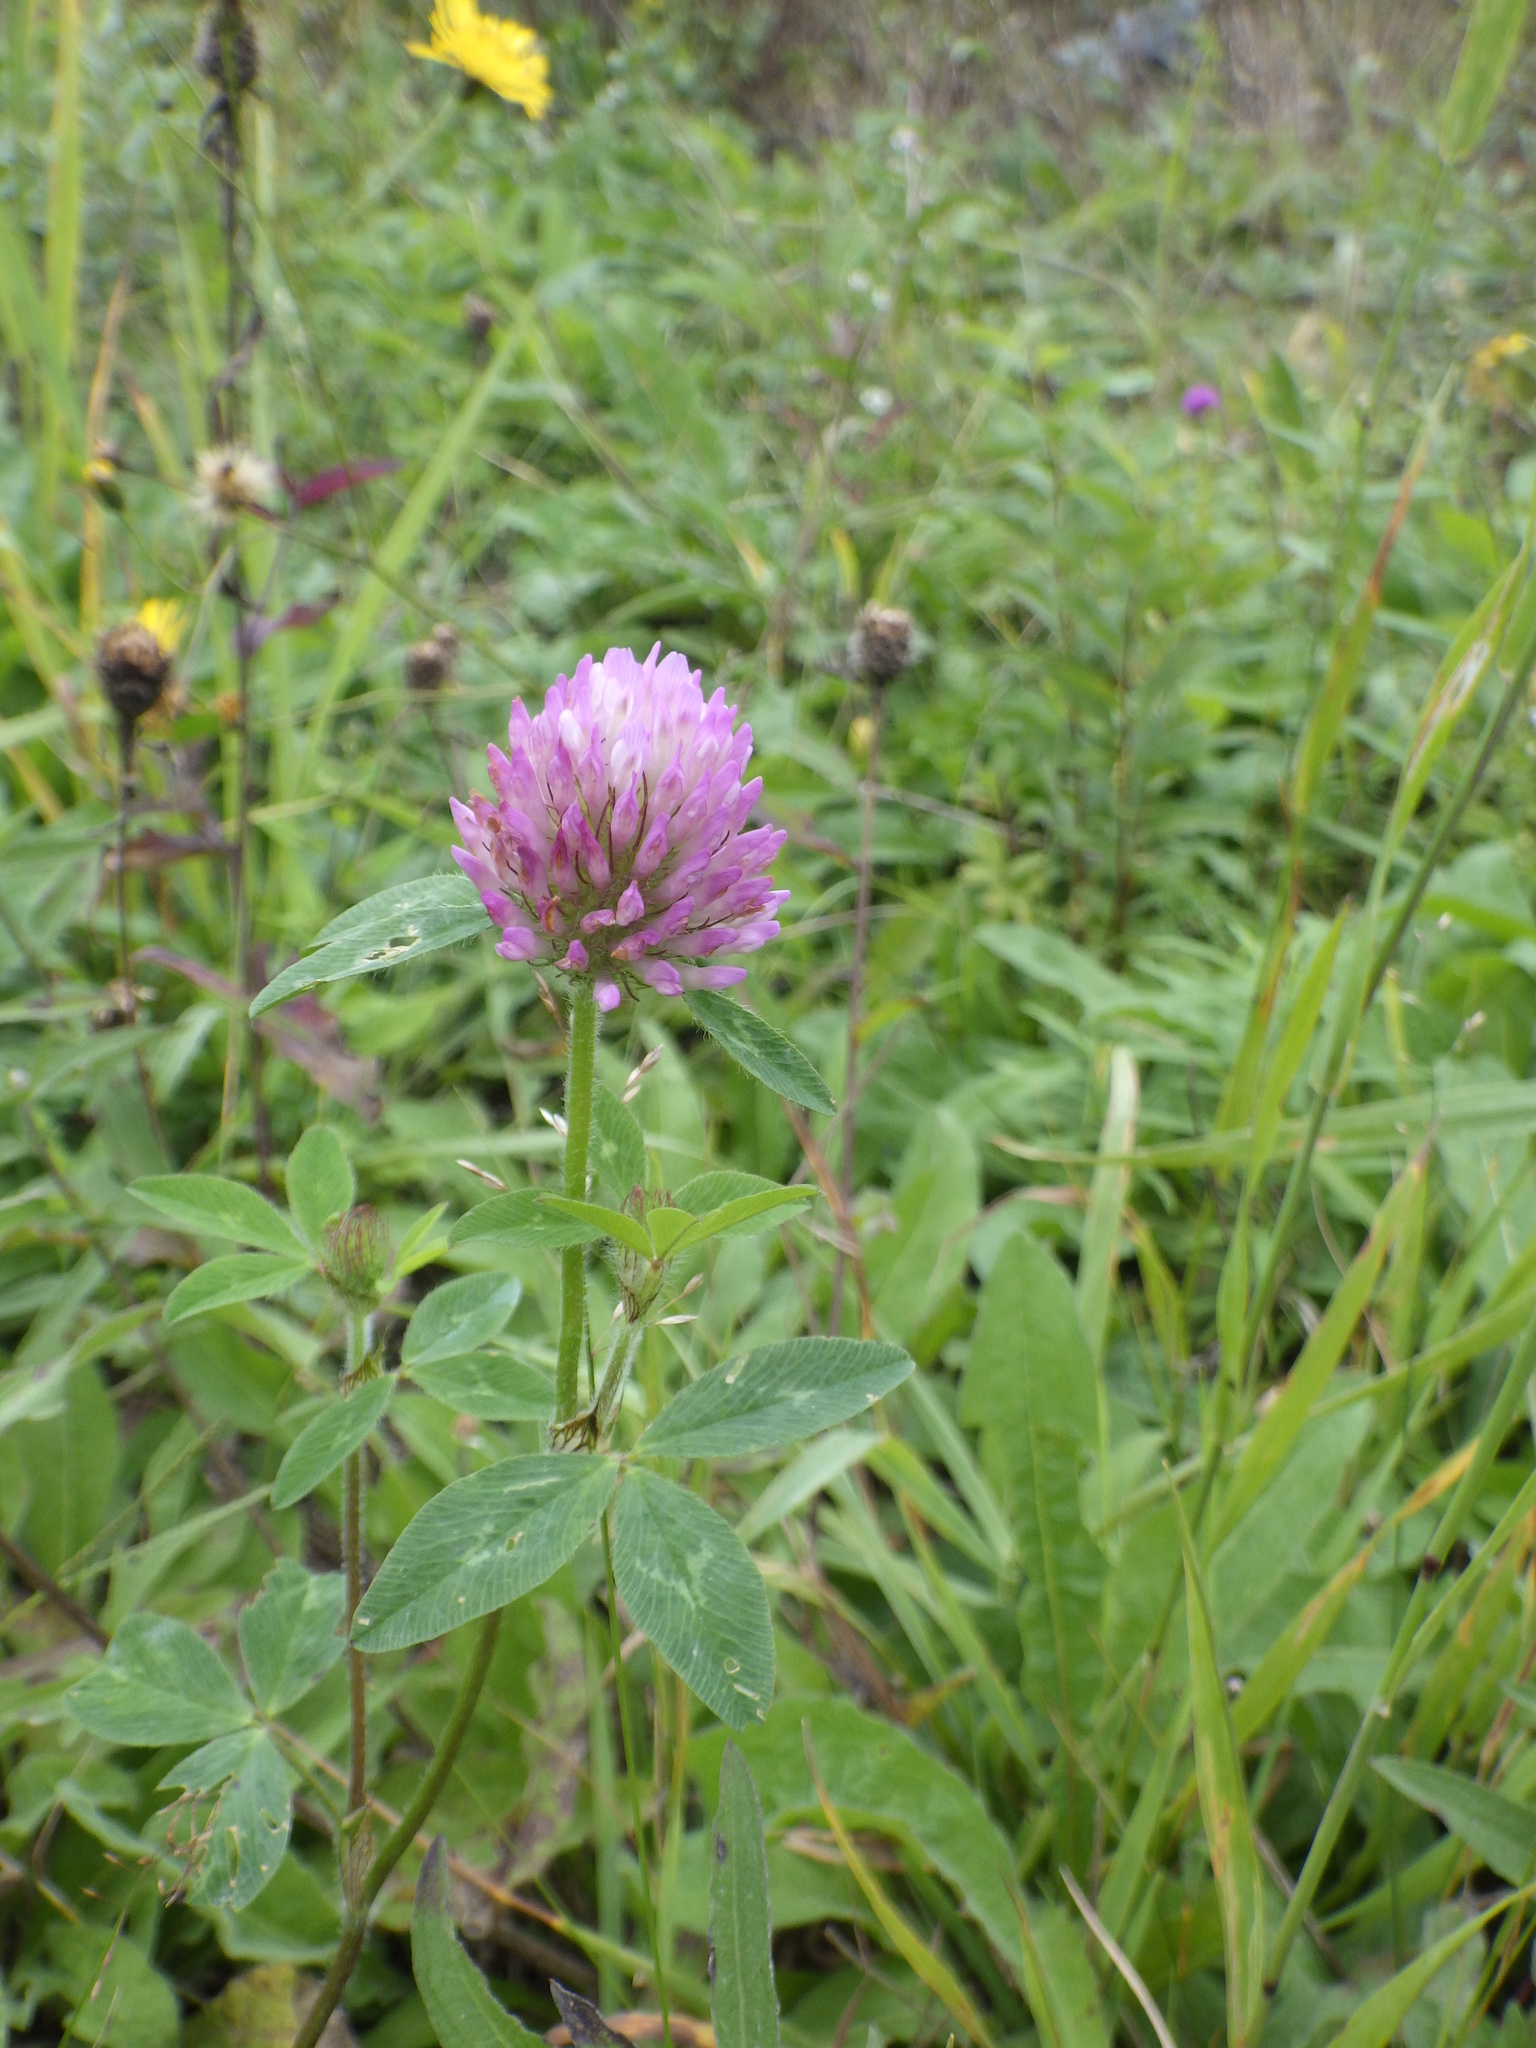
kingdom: Plantae
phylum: Tracheophyta
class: Magnoliopsida
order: Fabales
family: Fabaceae
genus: Trifolium
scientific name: Trifolium pratense
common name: Red clover
